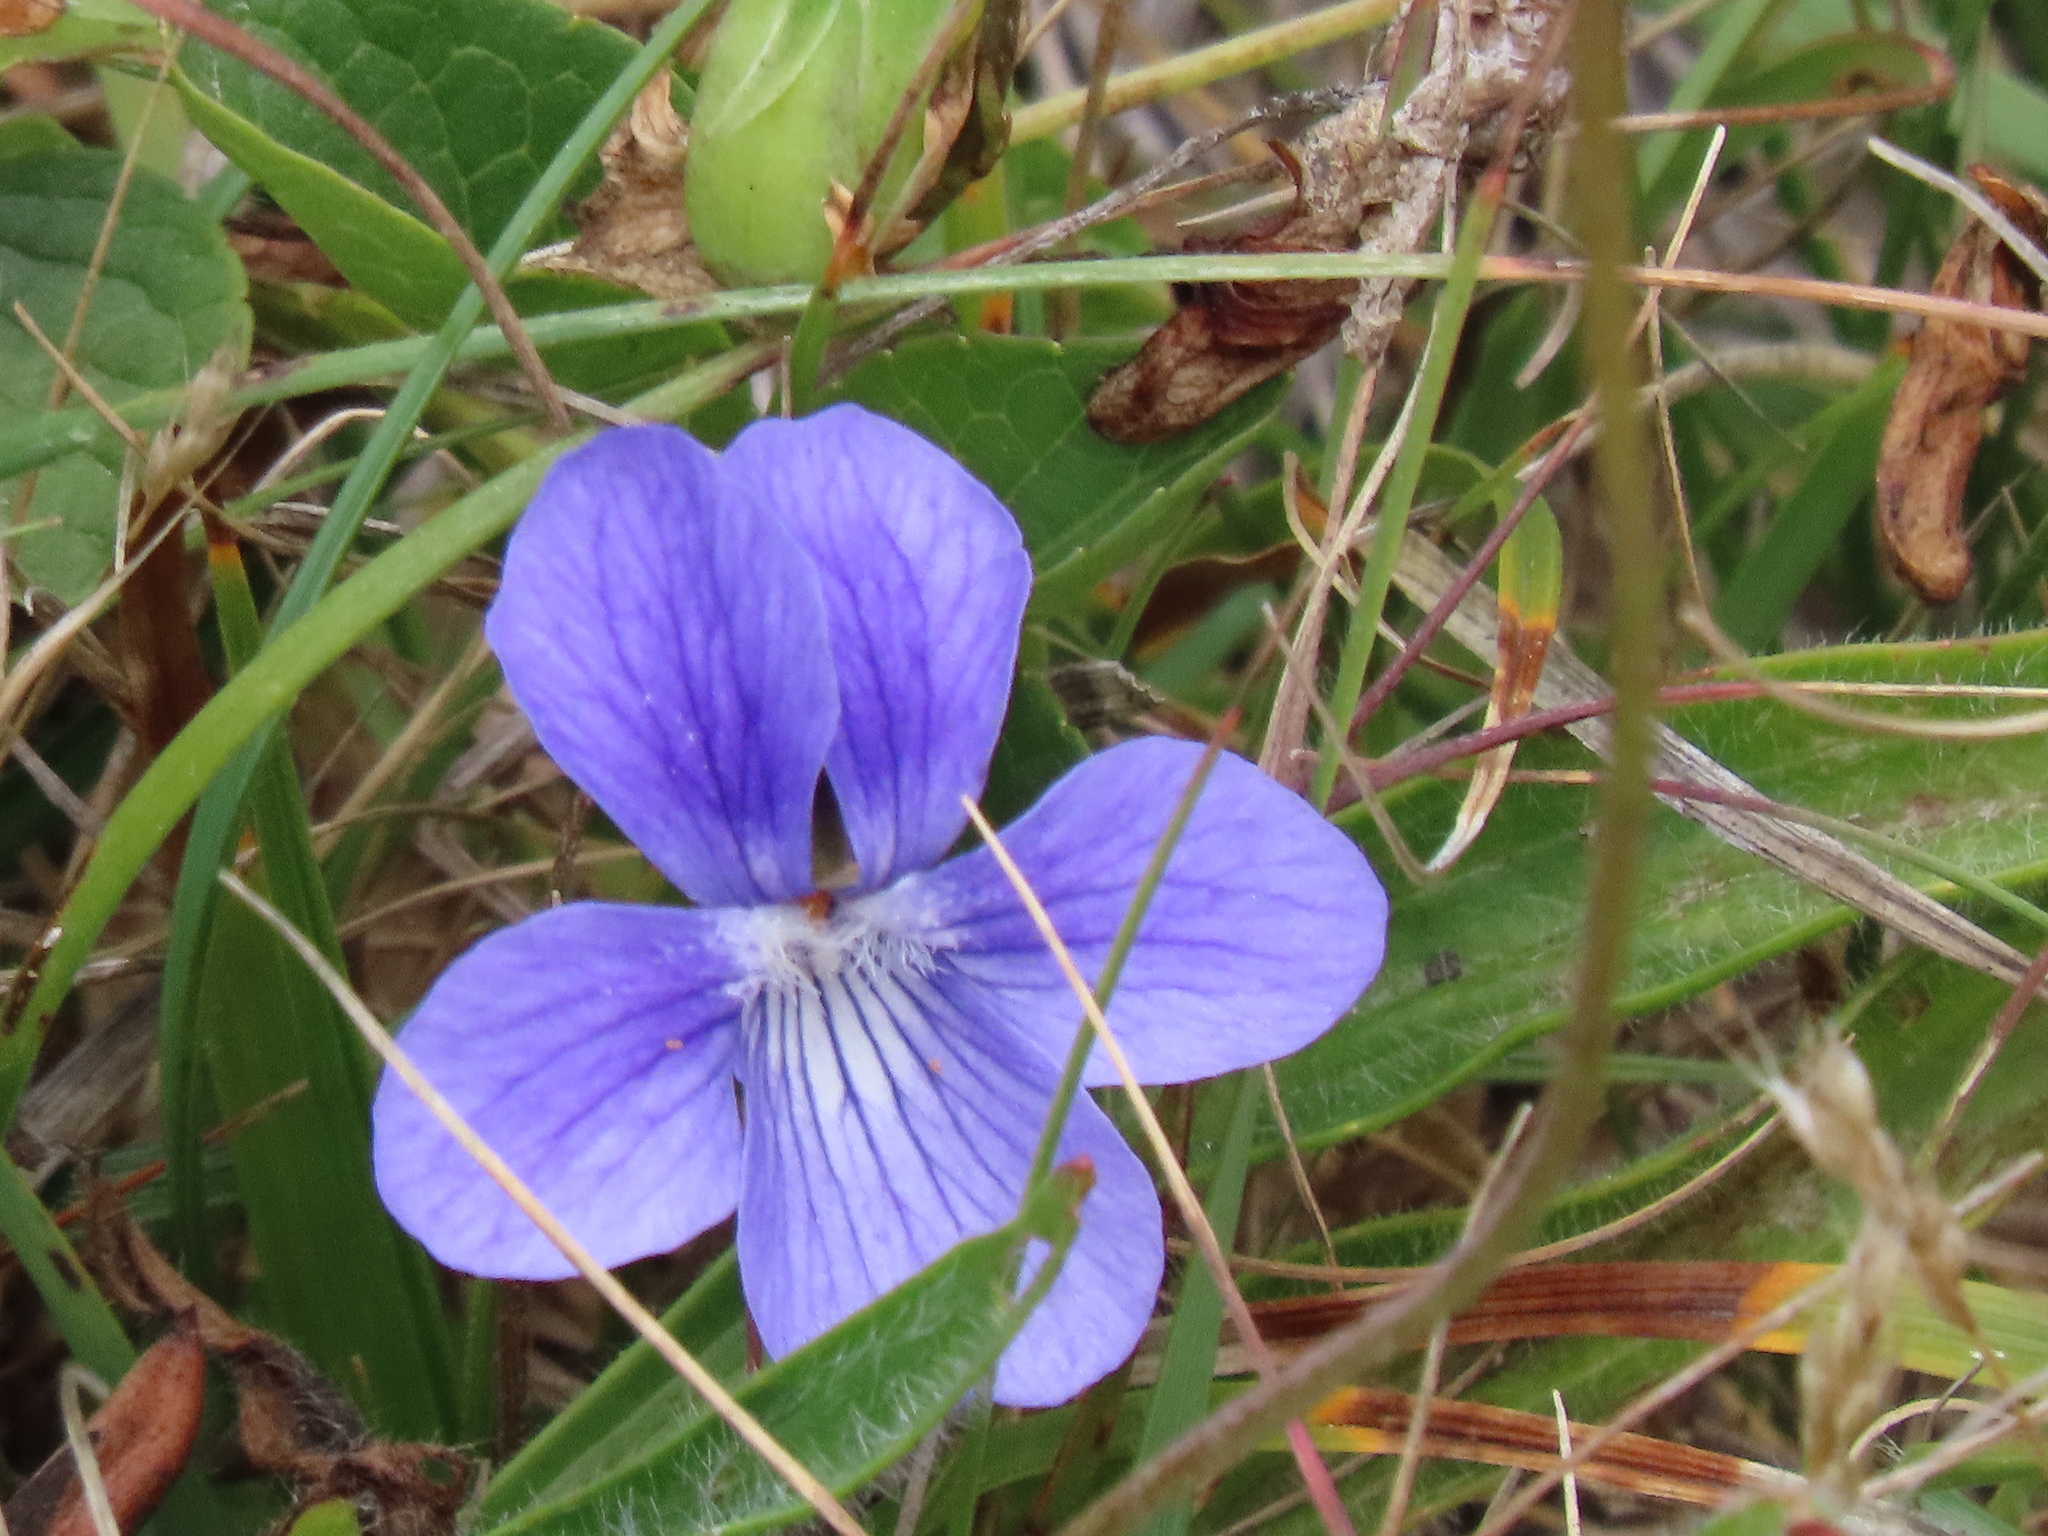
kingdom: Plantae
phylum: Tracheophyta
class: Magnoliopsida
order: Malpighiales
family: Violaceae
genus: Viola
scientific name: Viola adunca
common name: Sand violet
